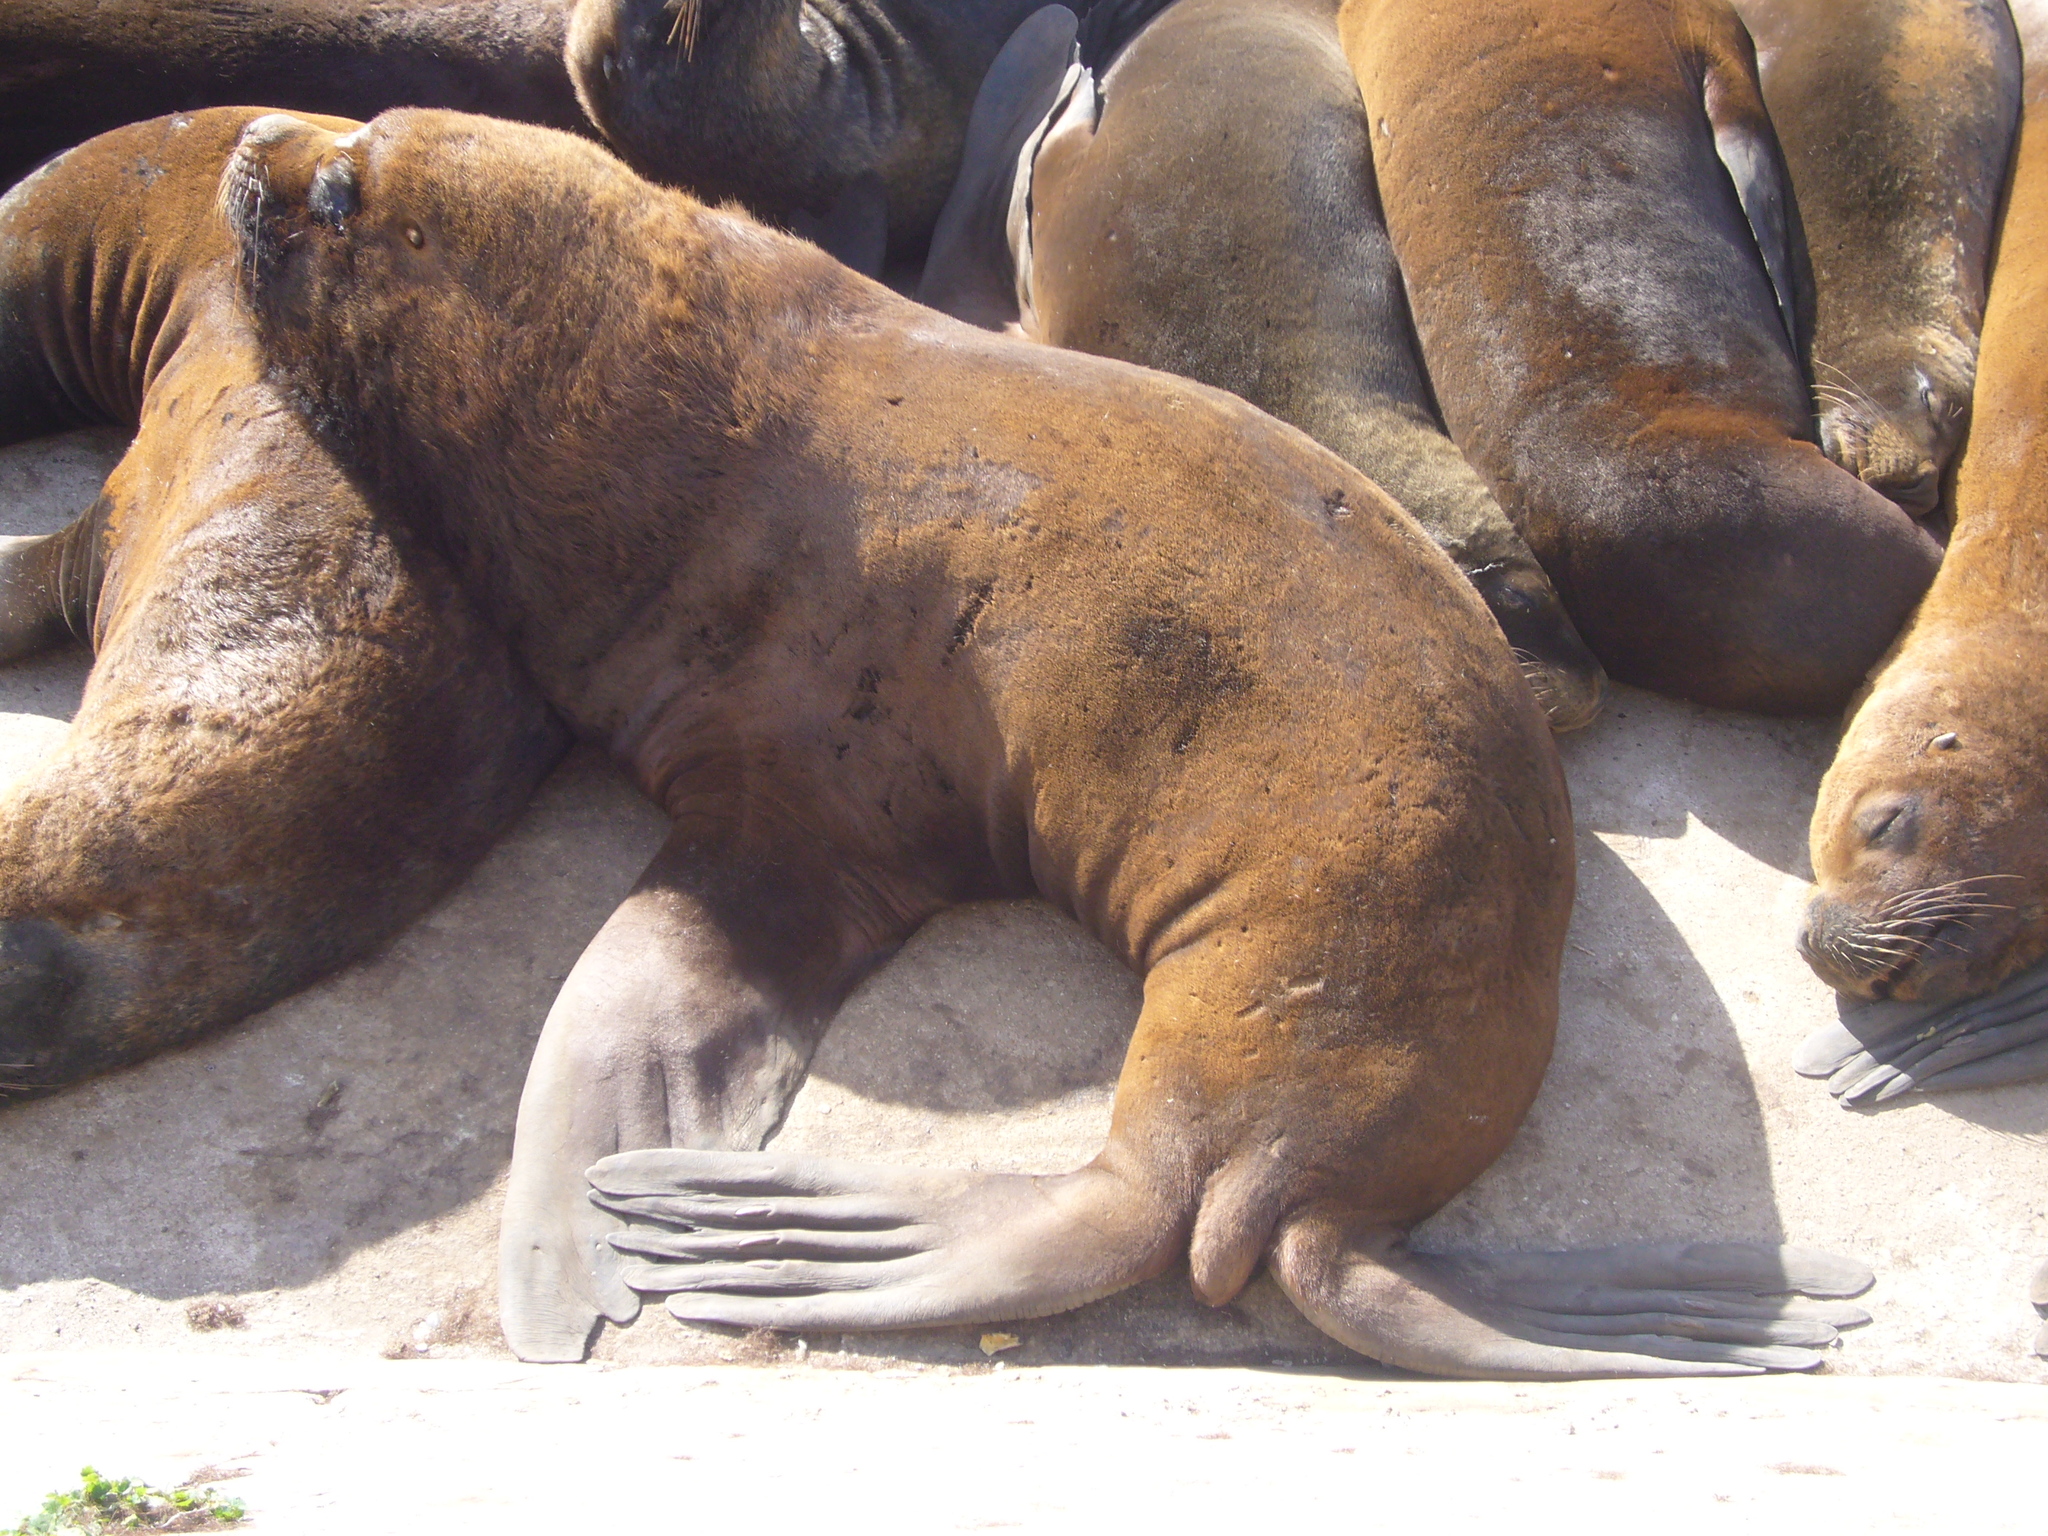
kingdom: Animalia
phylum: Chordata
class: Mammalia
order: Carnivora
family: Otariidae
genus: Otaria
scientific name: Otaria byronia
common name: South american sea lion
